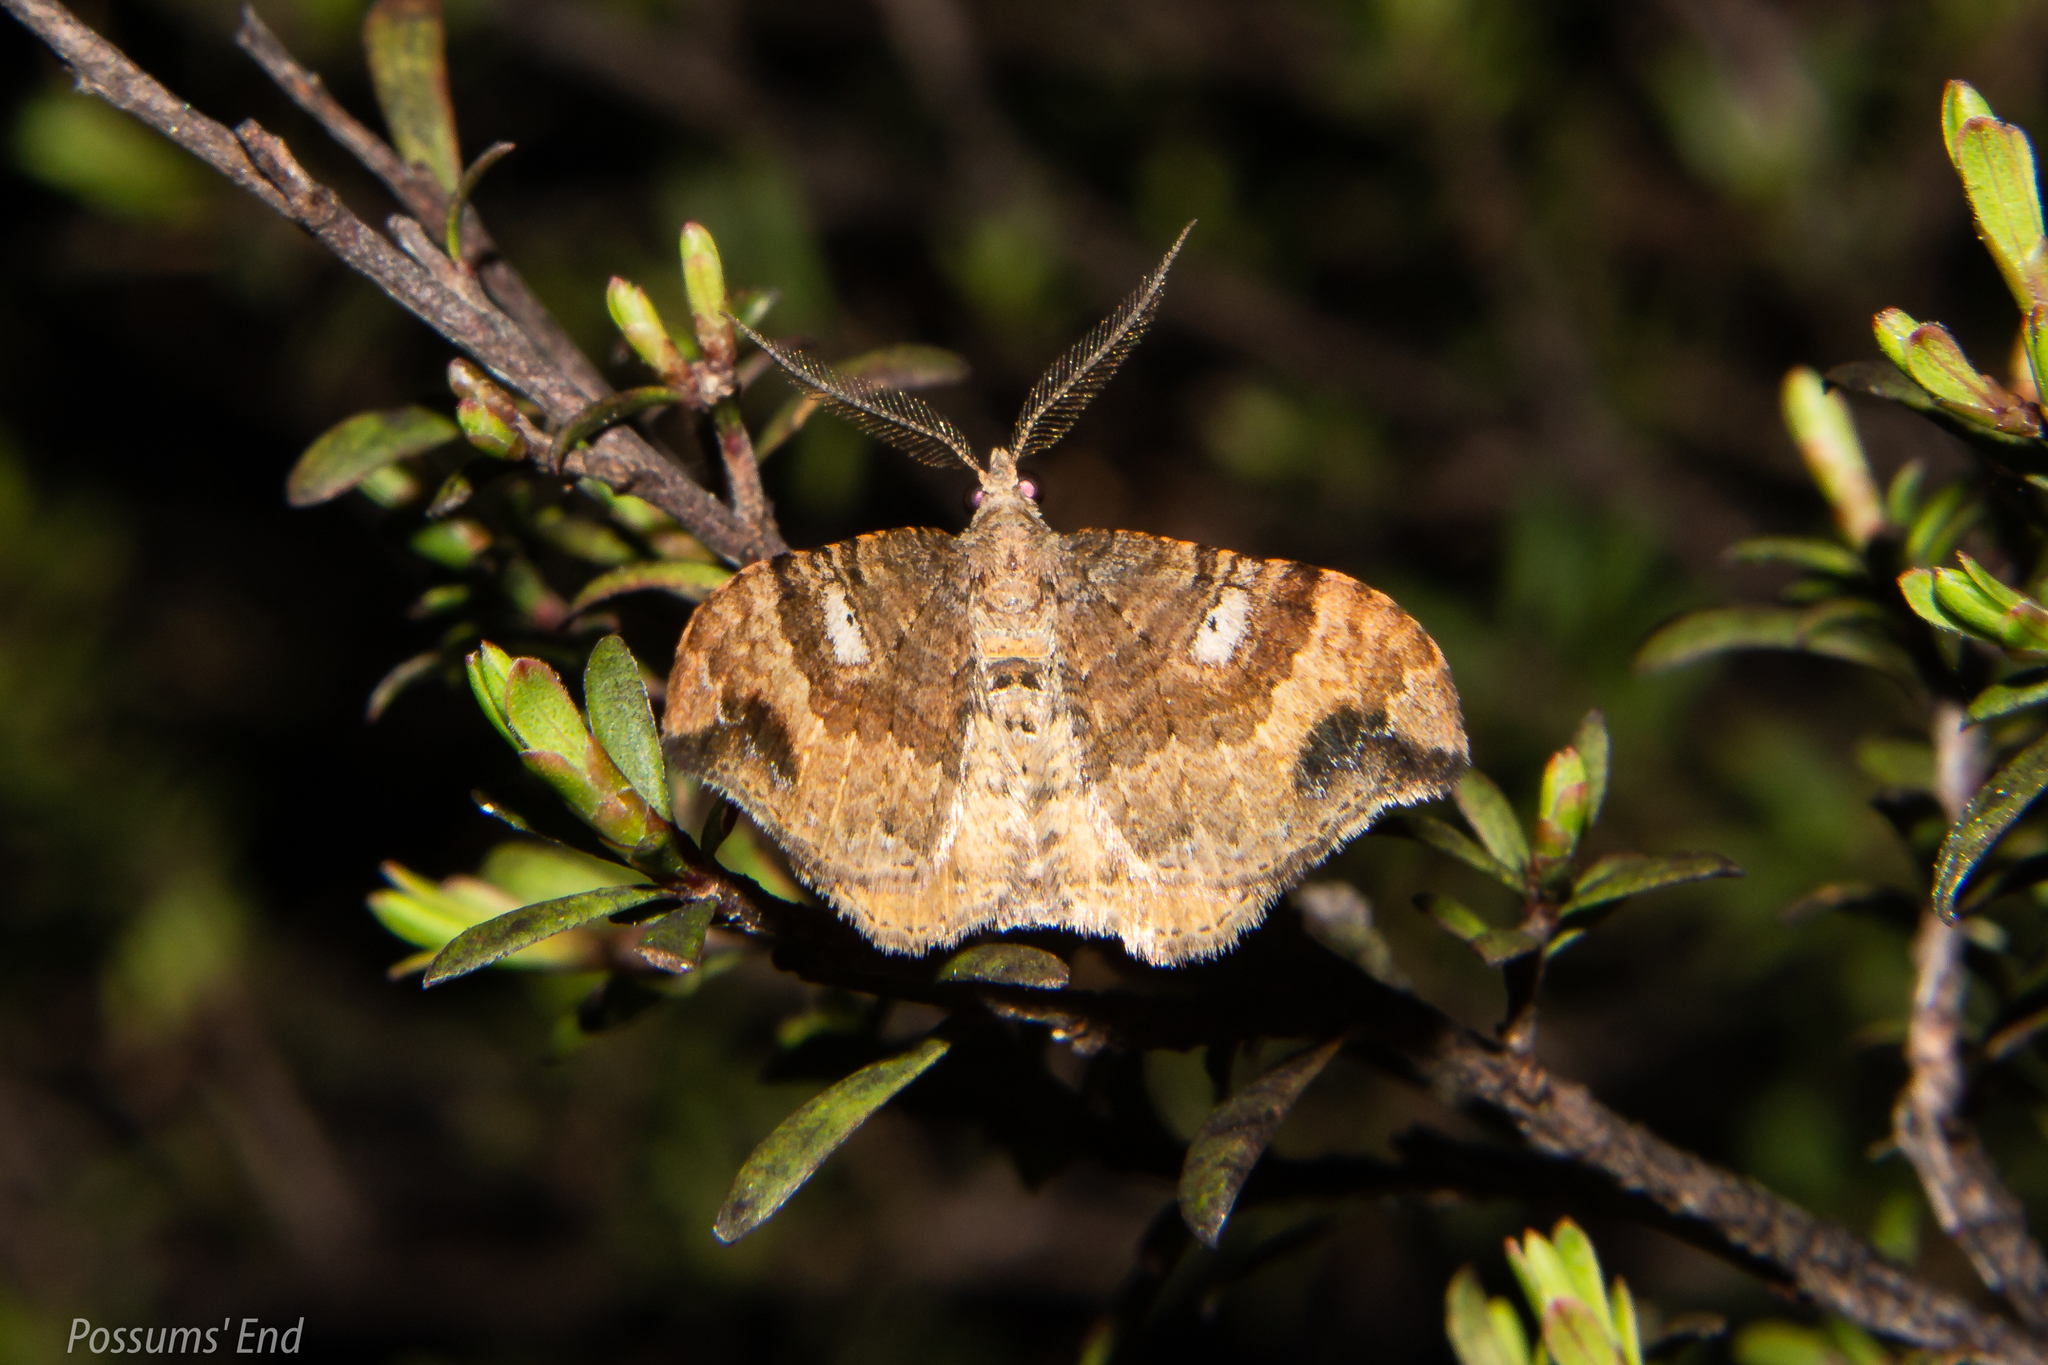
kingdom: Animalia
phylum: Arthropoda
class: Insecta
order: Lepidoptera
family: Geometridae
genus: Homodotis
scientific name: Homodotis megaspilata
